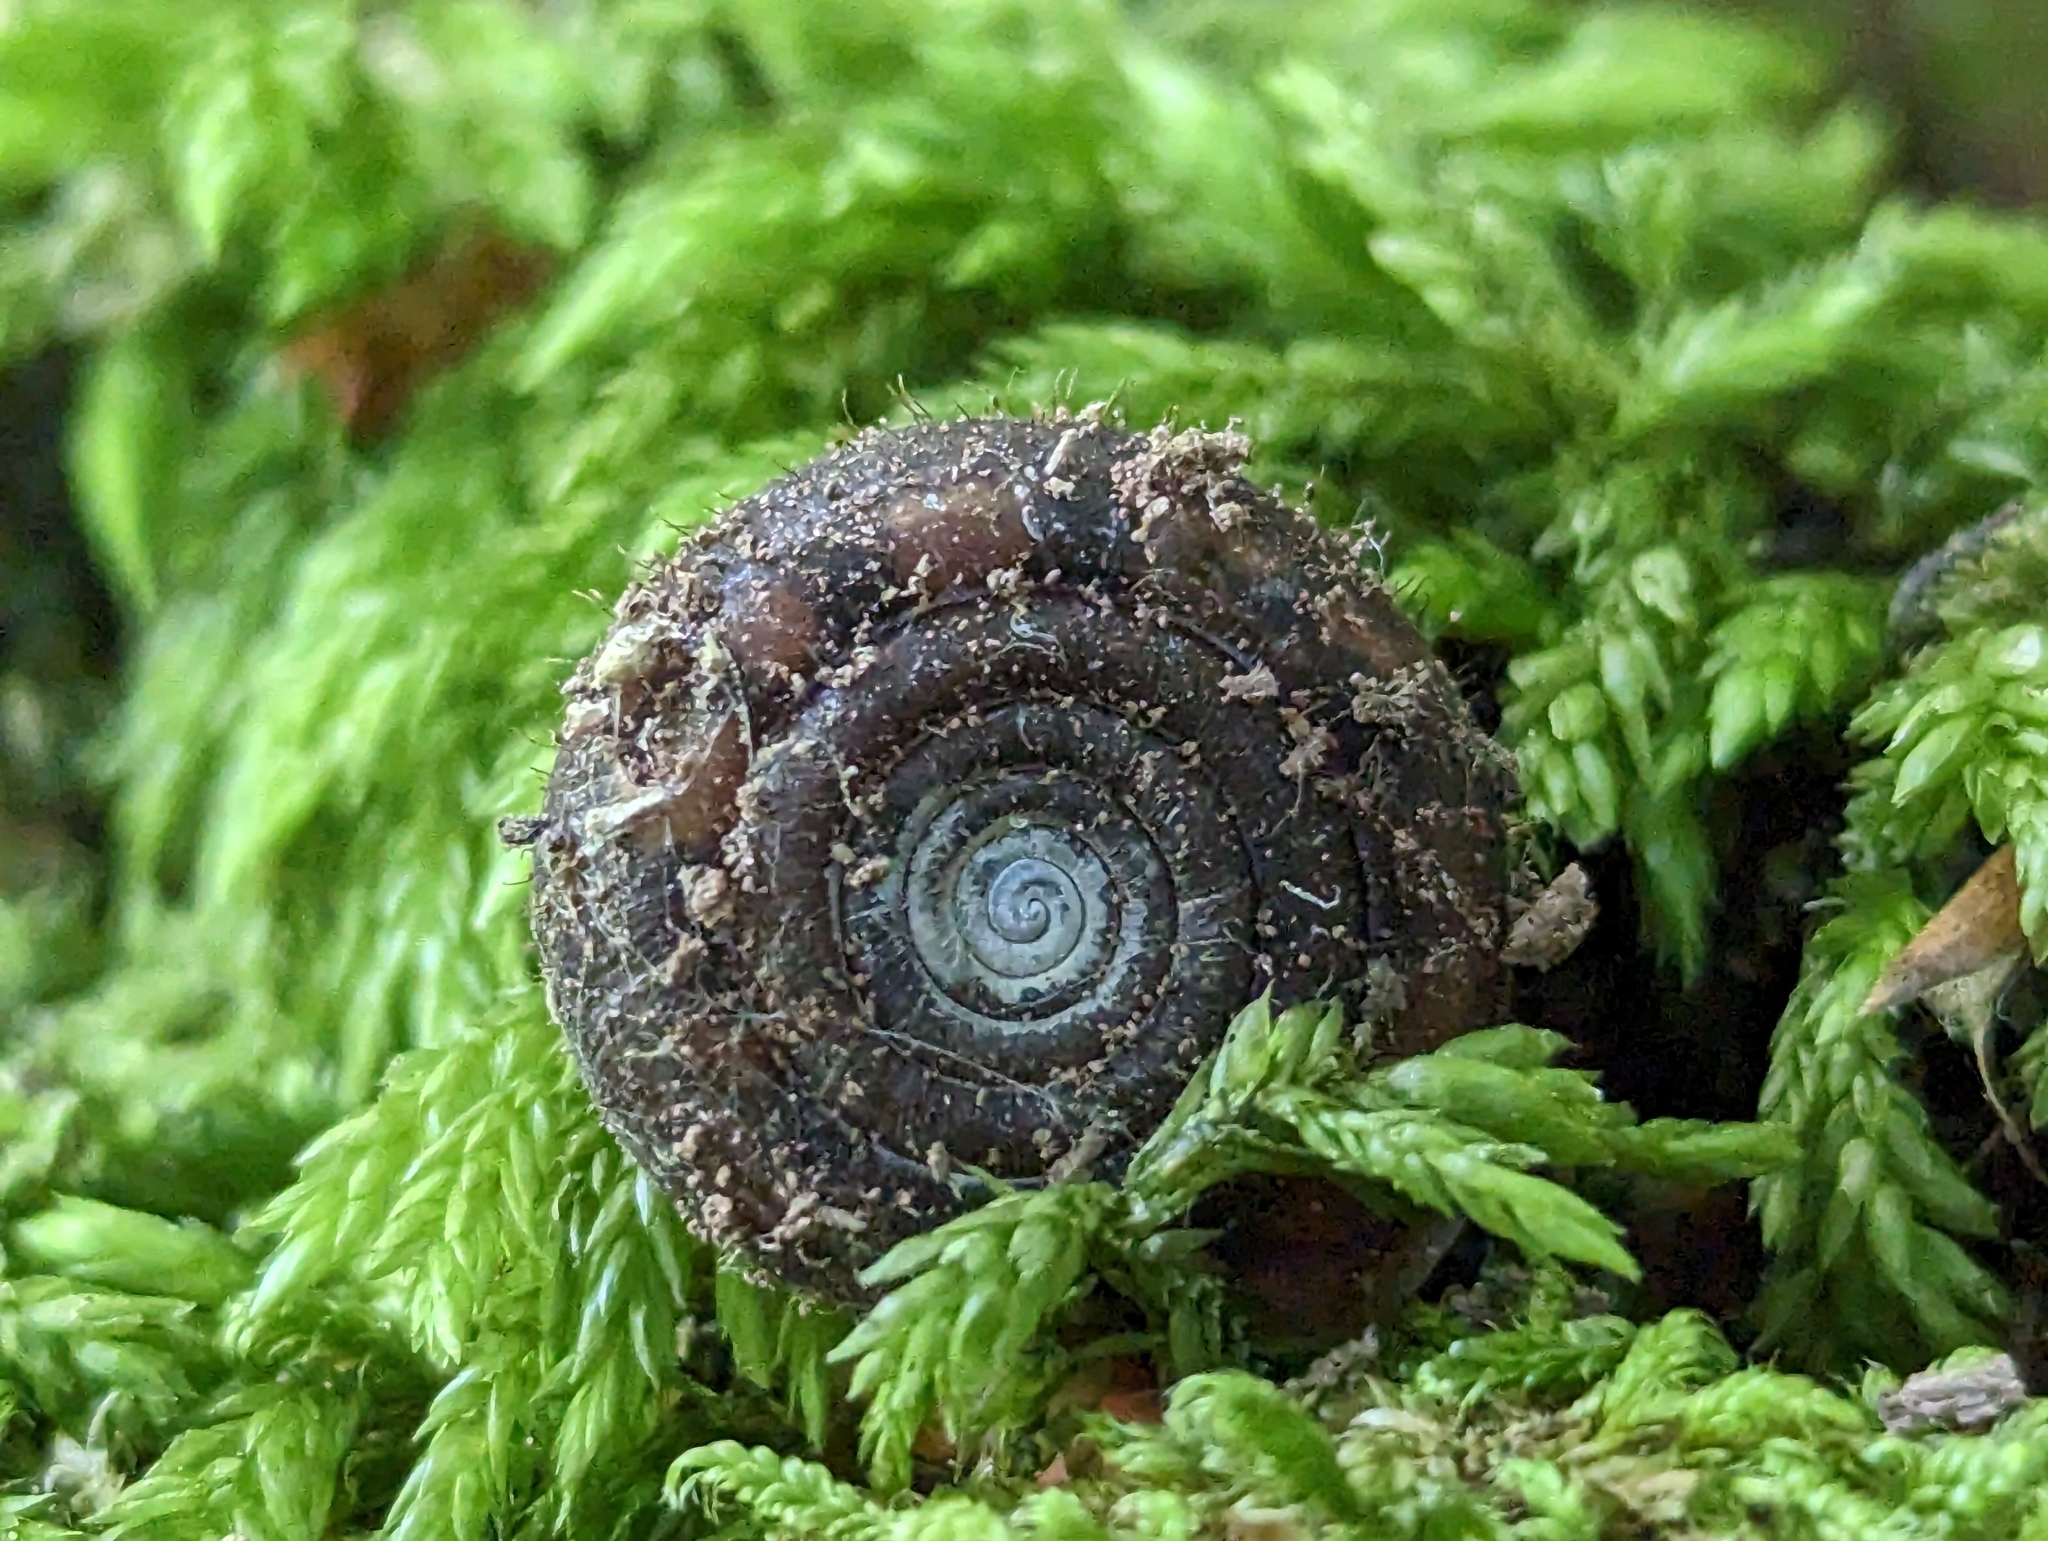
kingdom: Animalia
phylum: Mollusca
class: Gastropoda
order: Stylommatophora
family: Helicodontidae
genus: Helicodonta
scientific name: Helicodonta obvoluta
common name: Cheese snail
